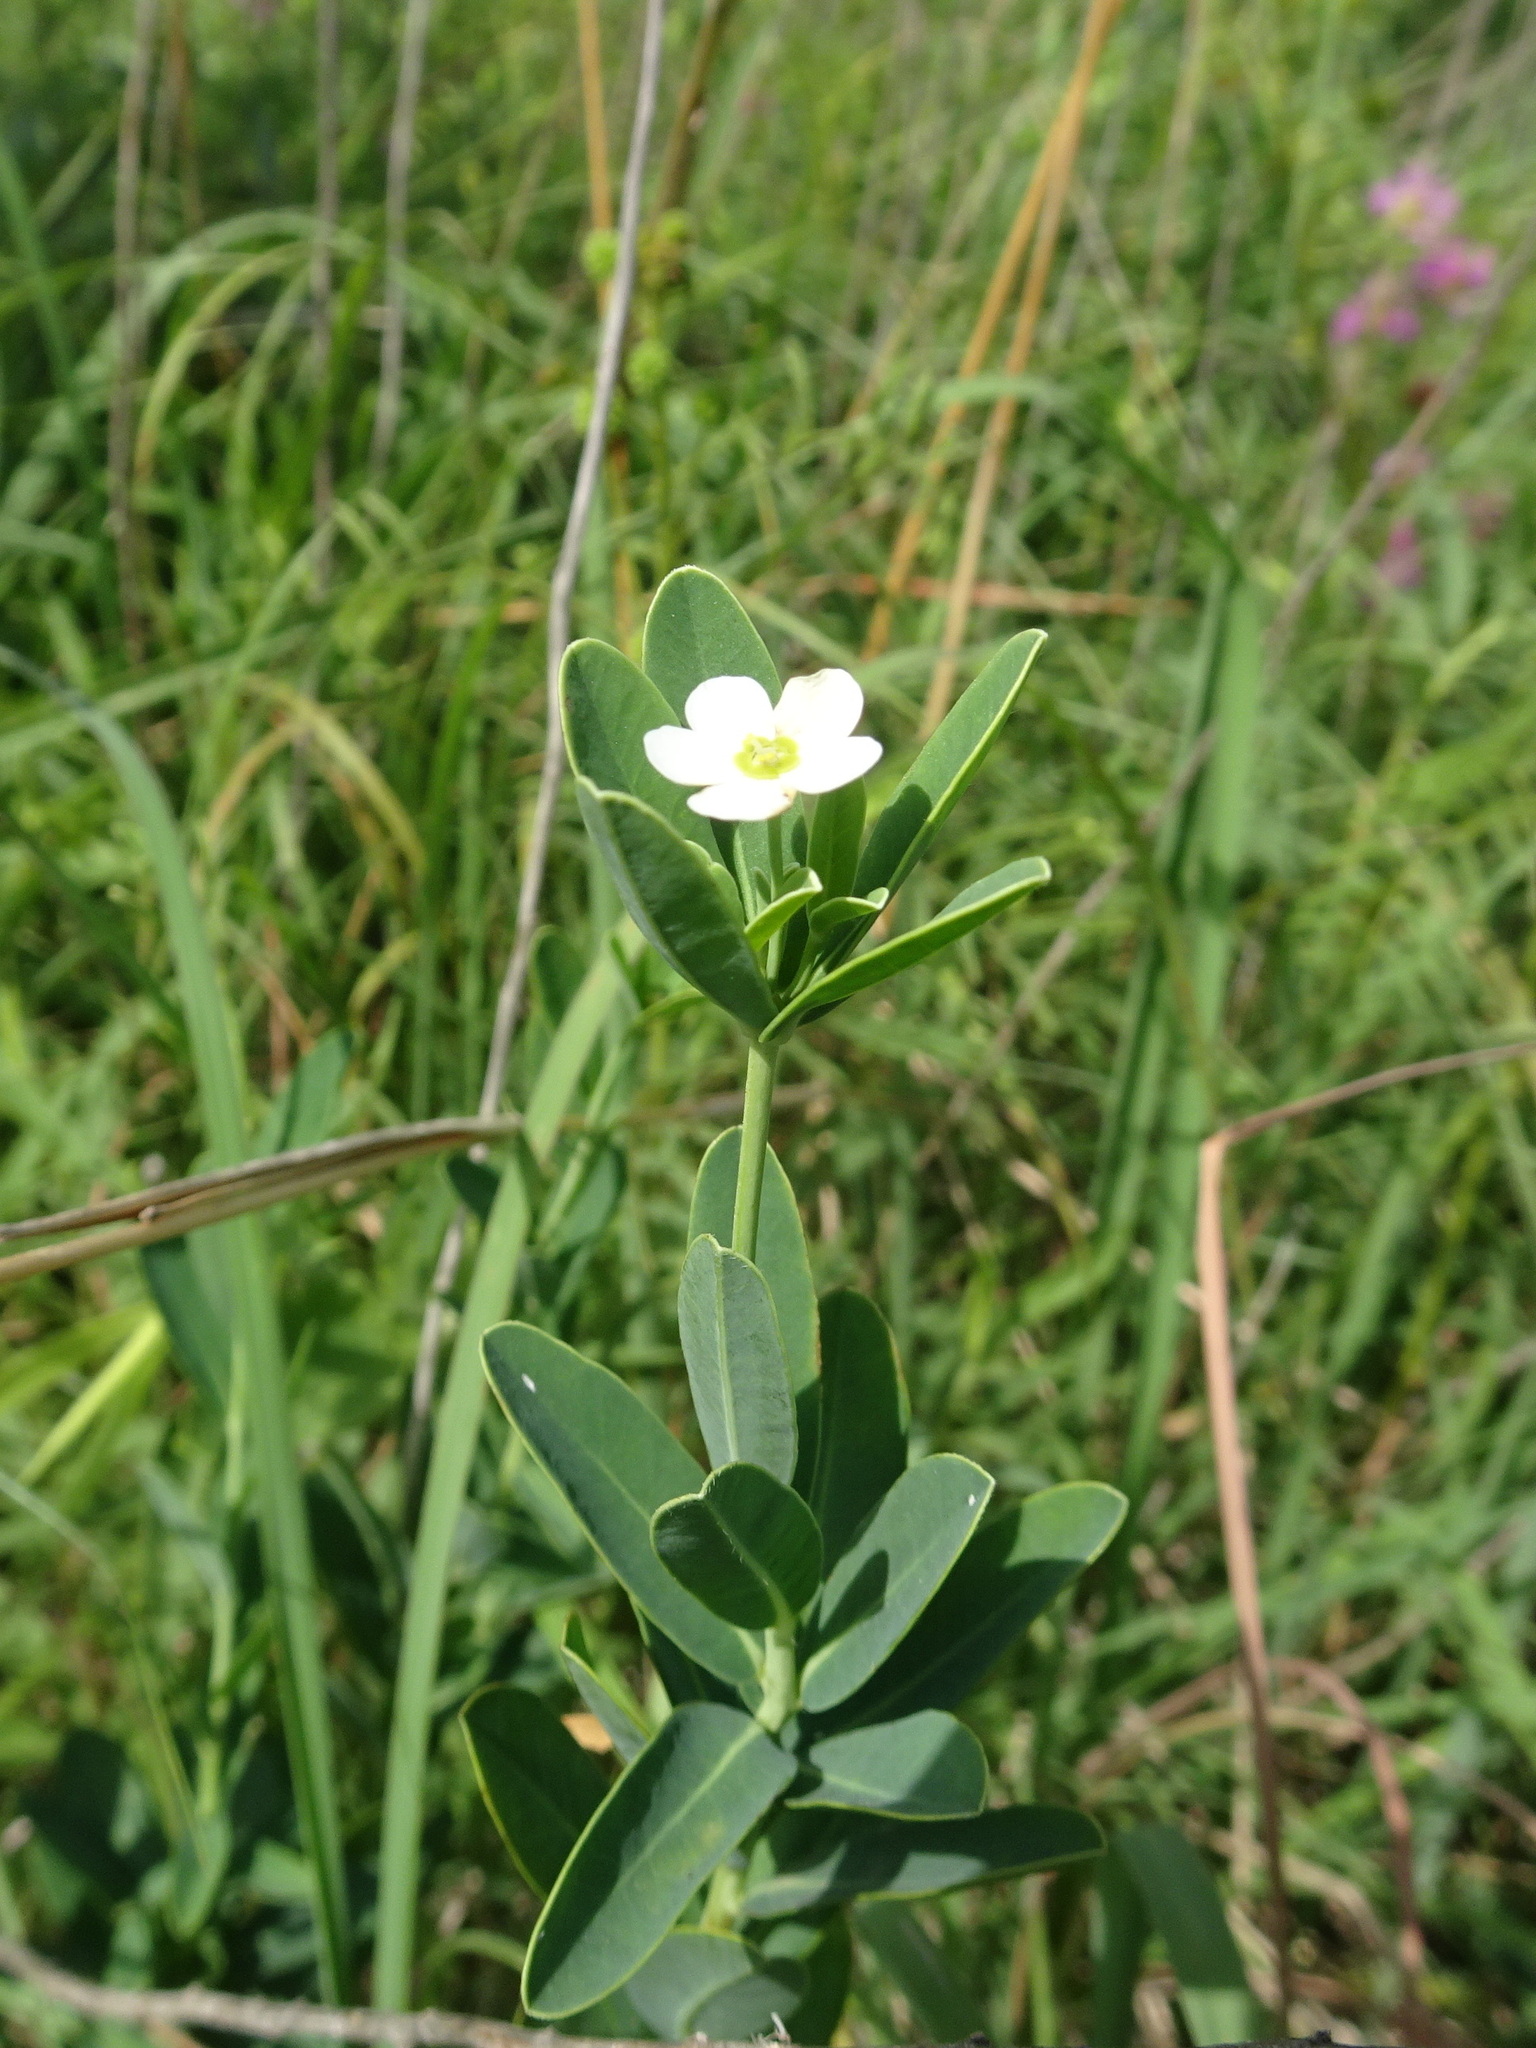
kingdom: Plantae
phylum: Tracheophyta
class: Magnoliopsida
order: Malpighiales
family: Euphorbiaceae
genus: Euphorbia
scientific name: Euphorbia corollata
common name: Flowering spurge
